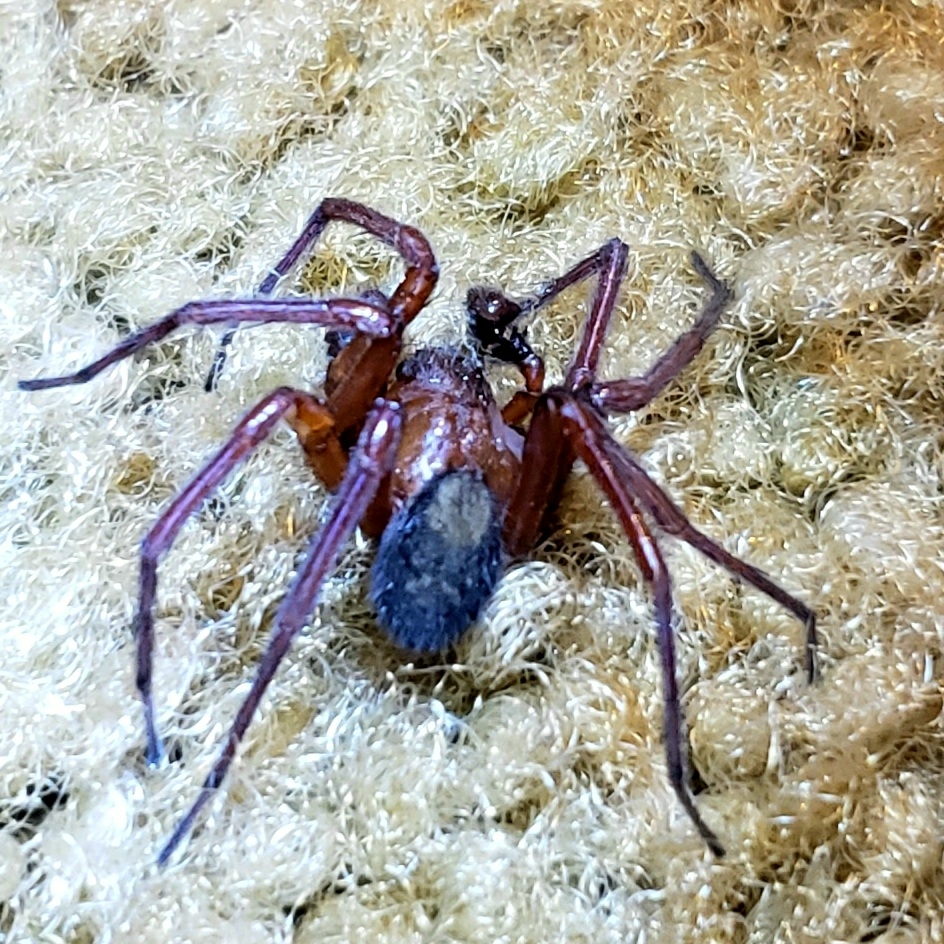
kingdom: Animalia
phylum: Arthropoda
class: Arachnida
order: Araneae
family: Amaurobiidae
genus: Callobius
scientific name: Callobius severus
